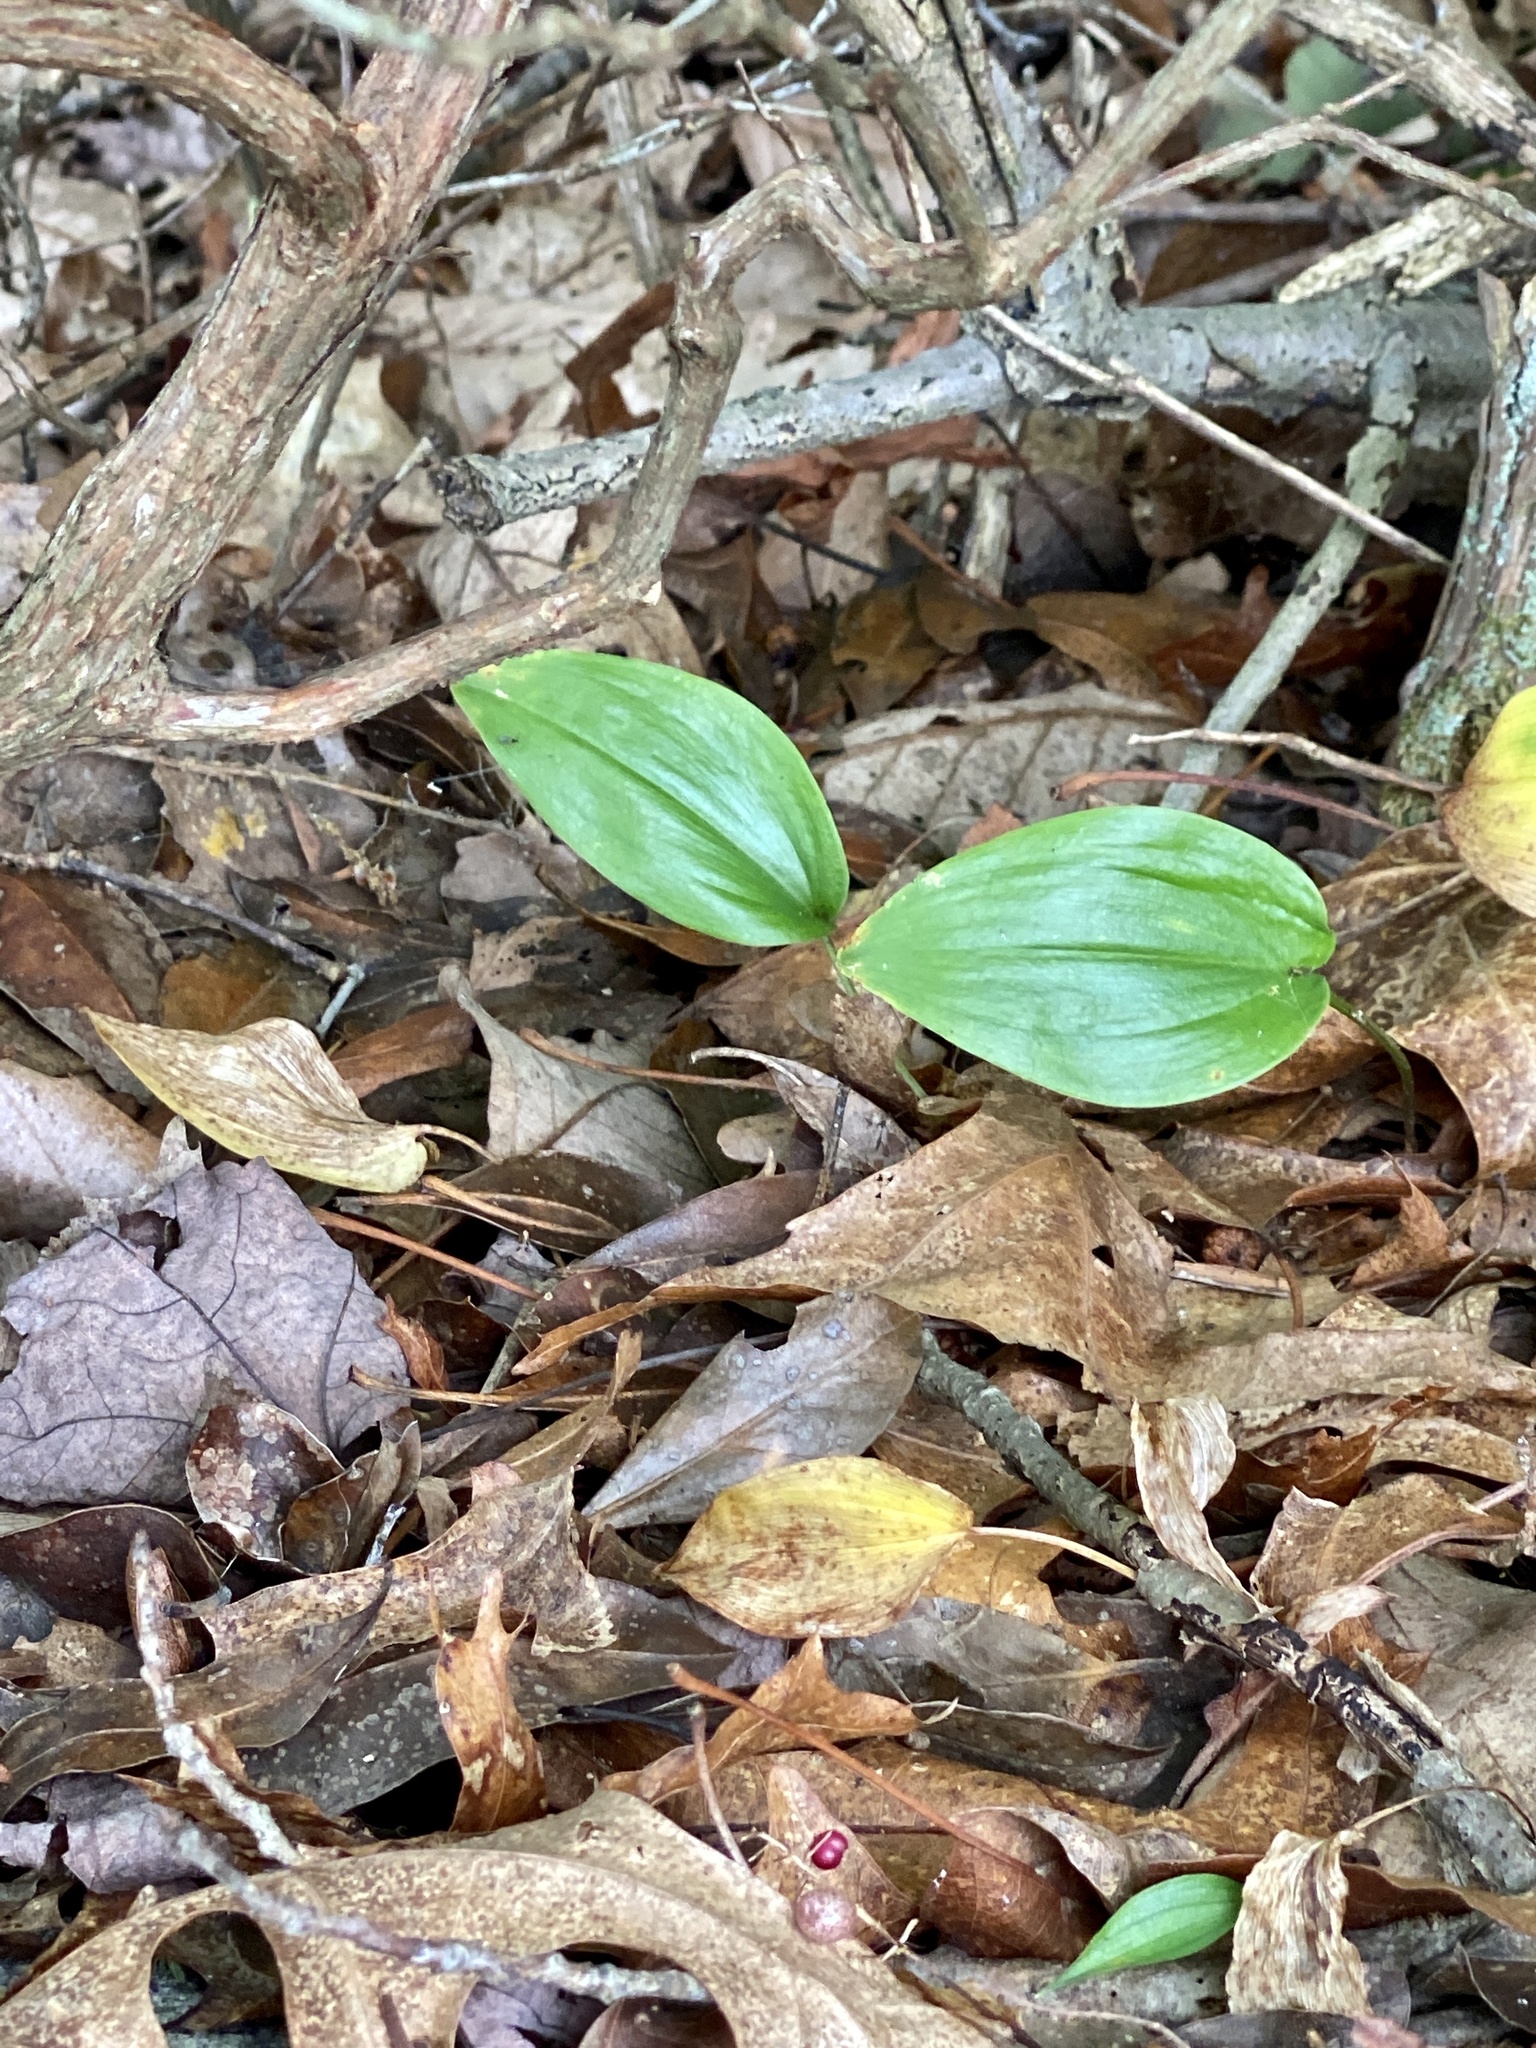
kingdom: Plantae
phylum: Tracheophyta
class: Liliopsida
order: Asparagales
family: Asparagaceae
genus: Maianthemum
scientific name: Maianthemum canadense
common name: False lily-of-the-valley
